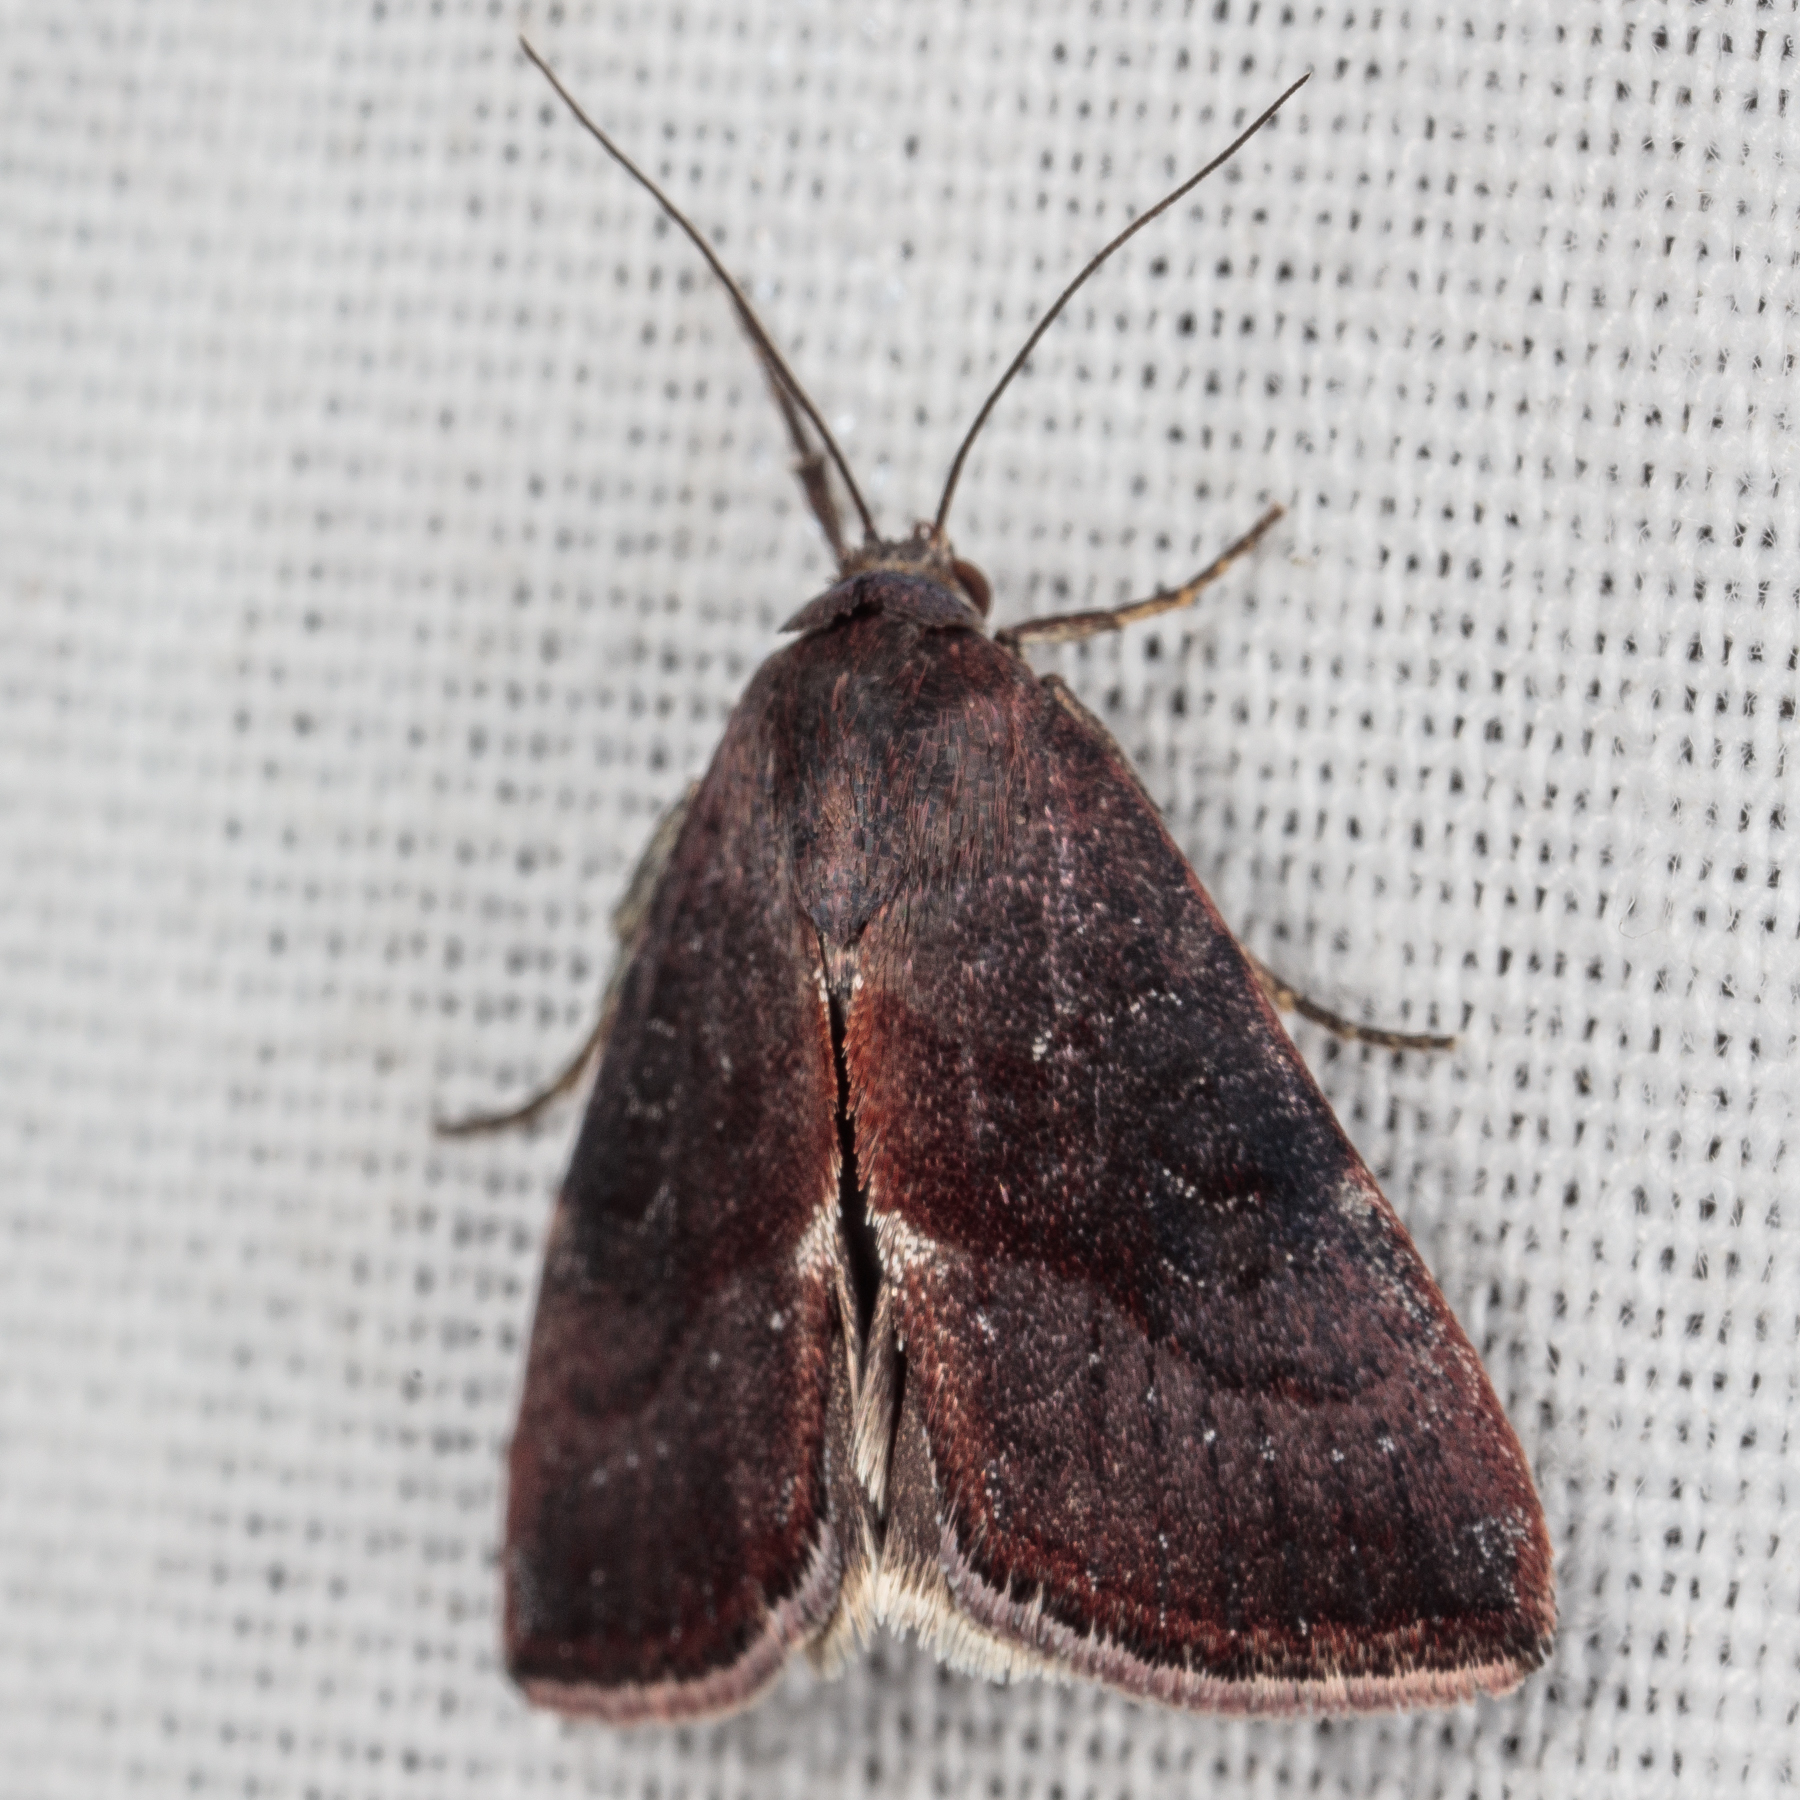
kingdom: Animalia
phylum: Arthropoda
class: Insecta
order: Lepidoptera
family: Noctuidae
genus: Galgula
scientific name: Galgula partita
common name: Wedgeling
